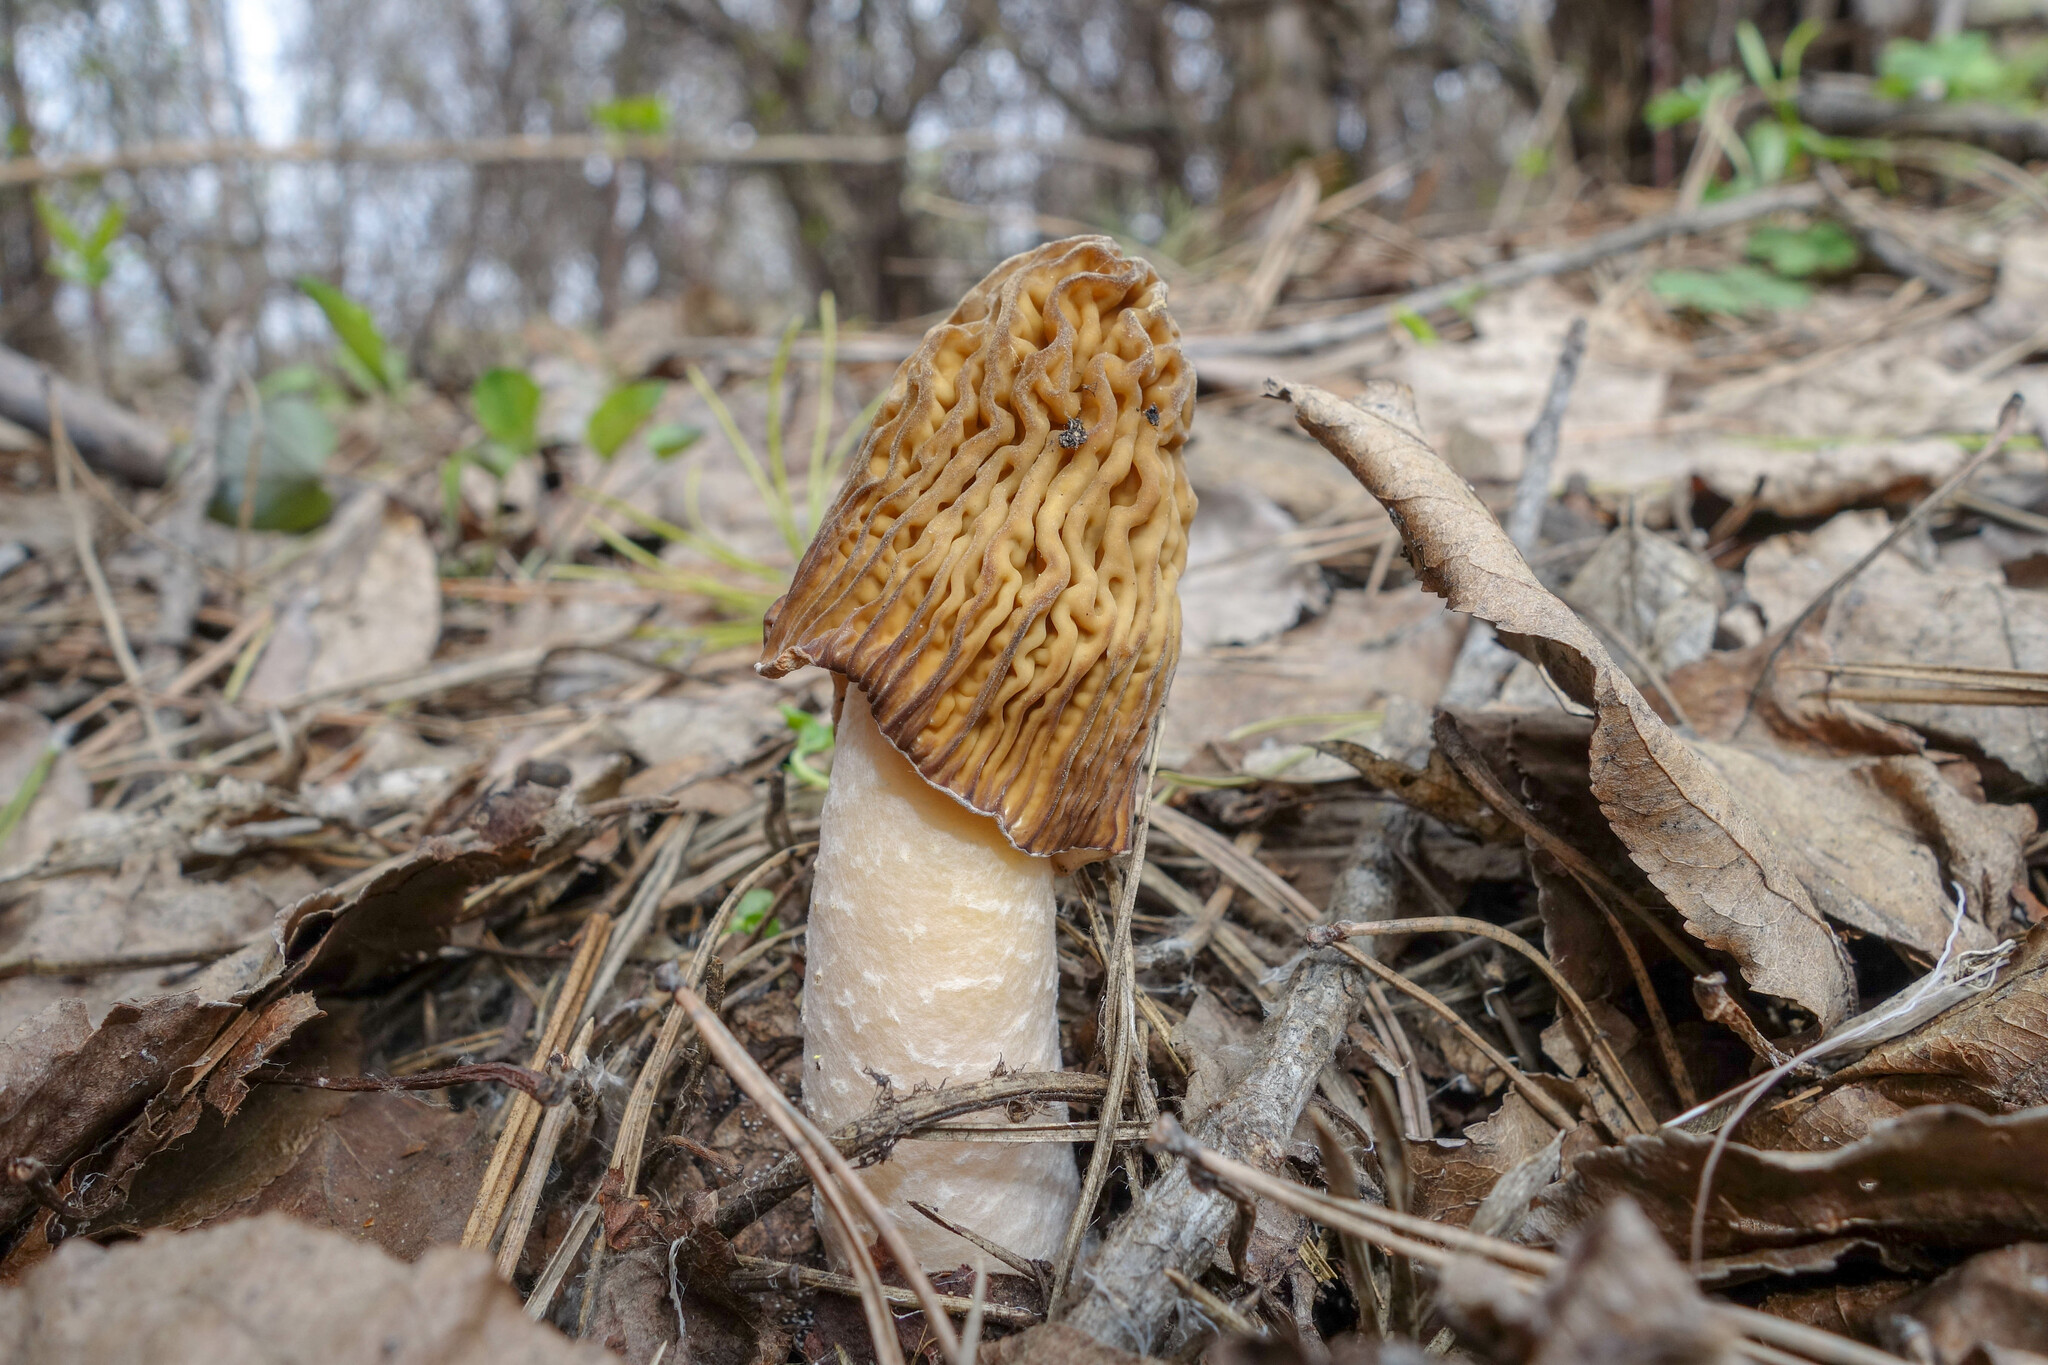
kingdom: Fungi
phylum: Ascomycota
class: Pezizomycetes
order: Pezizales
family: Morchellaceae
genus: Verpa
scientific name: Verpa bohemica
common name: Wrinkled thimble morel
